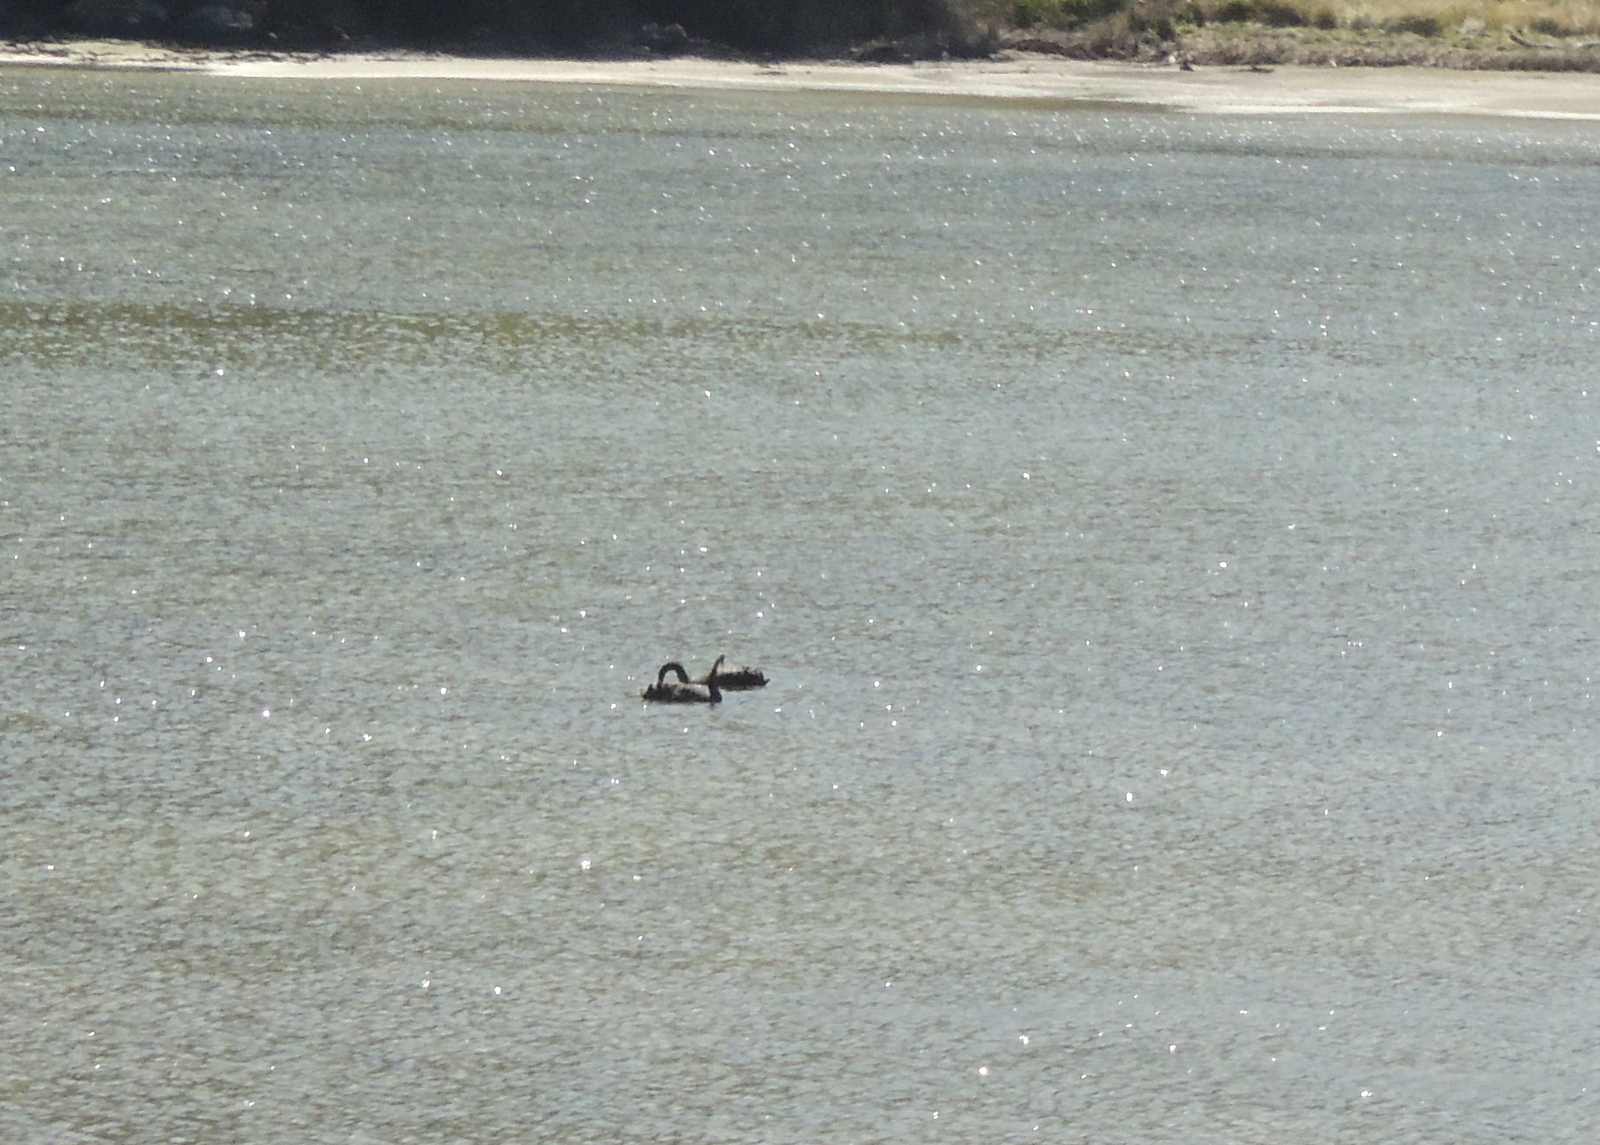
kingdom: Animalia
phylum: Chordata
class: Aves
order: Anseriformes
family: Anatidae
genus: Cygnus
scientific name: Cygnus atratus
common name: Black swan
